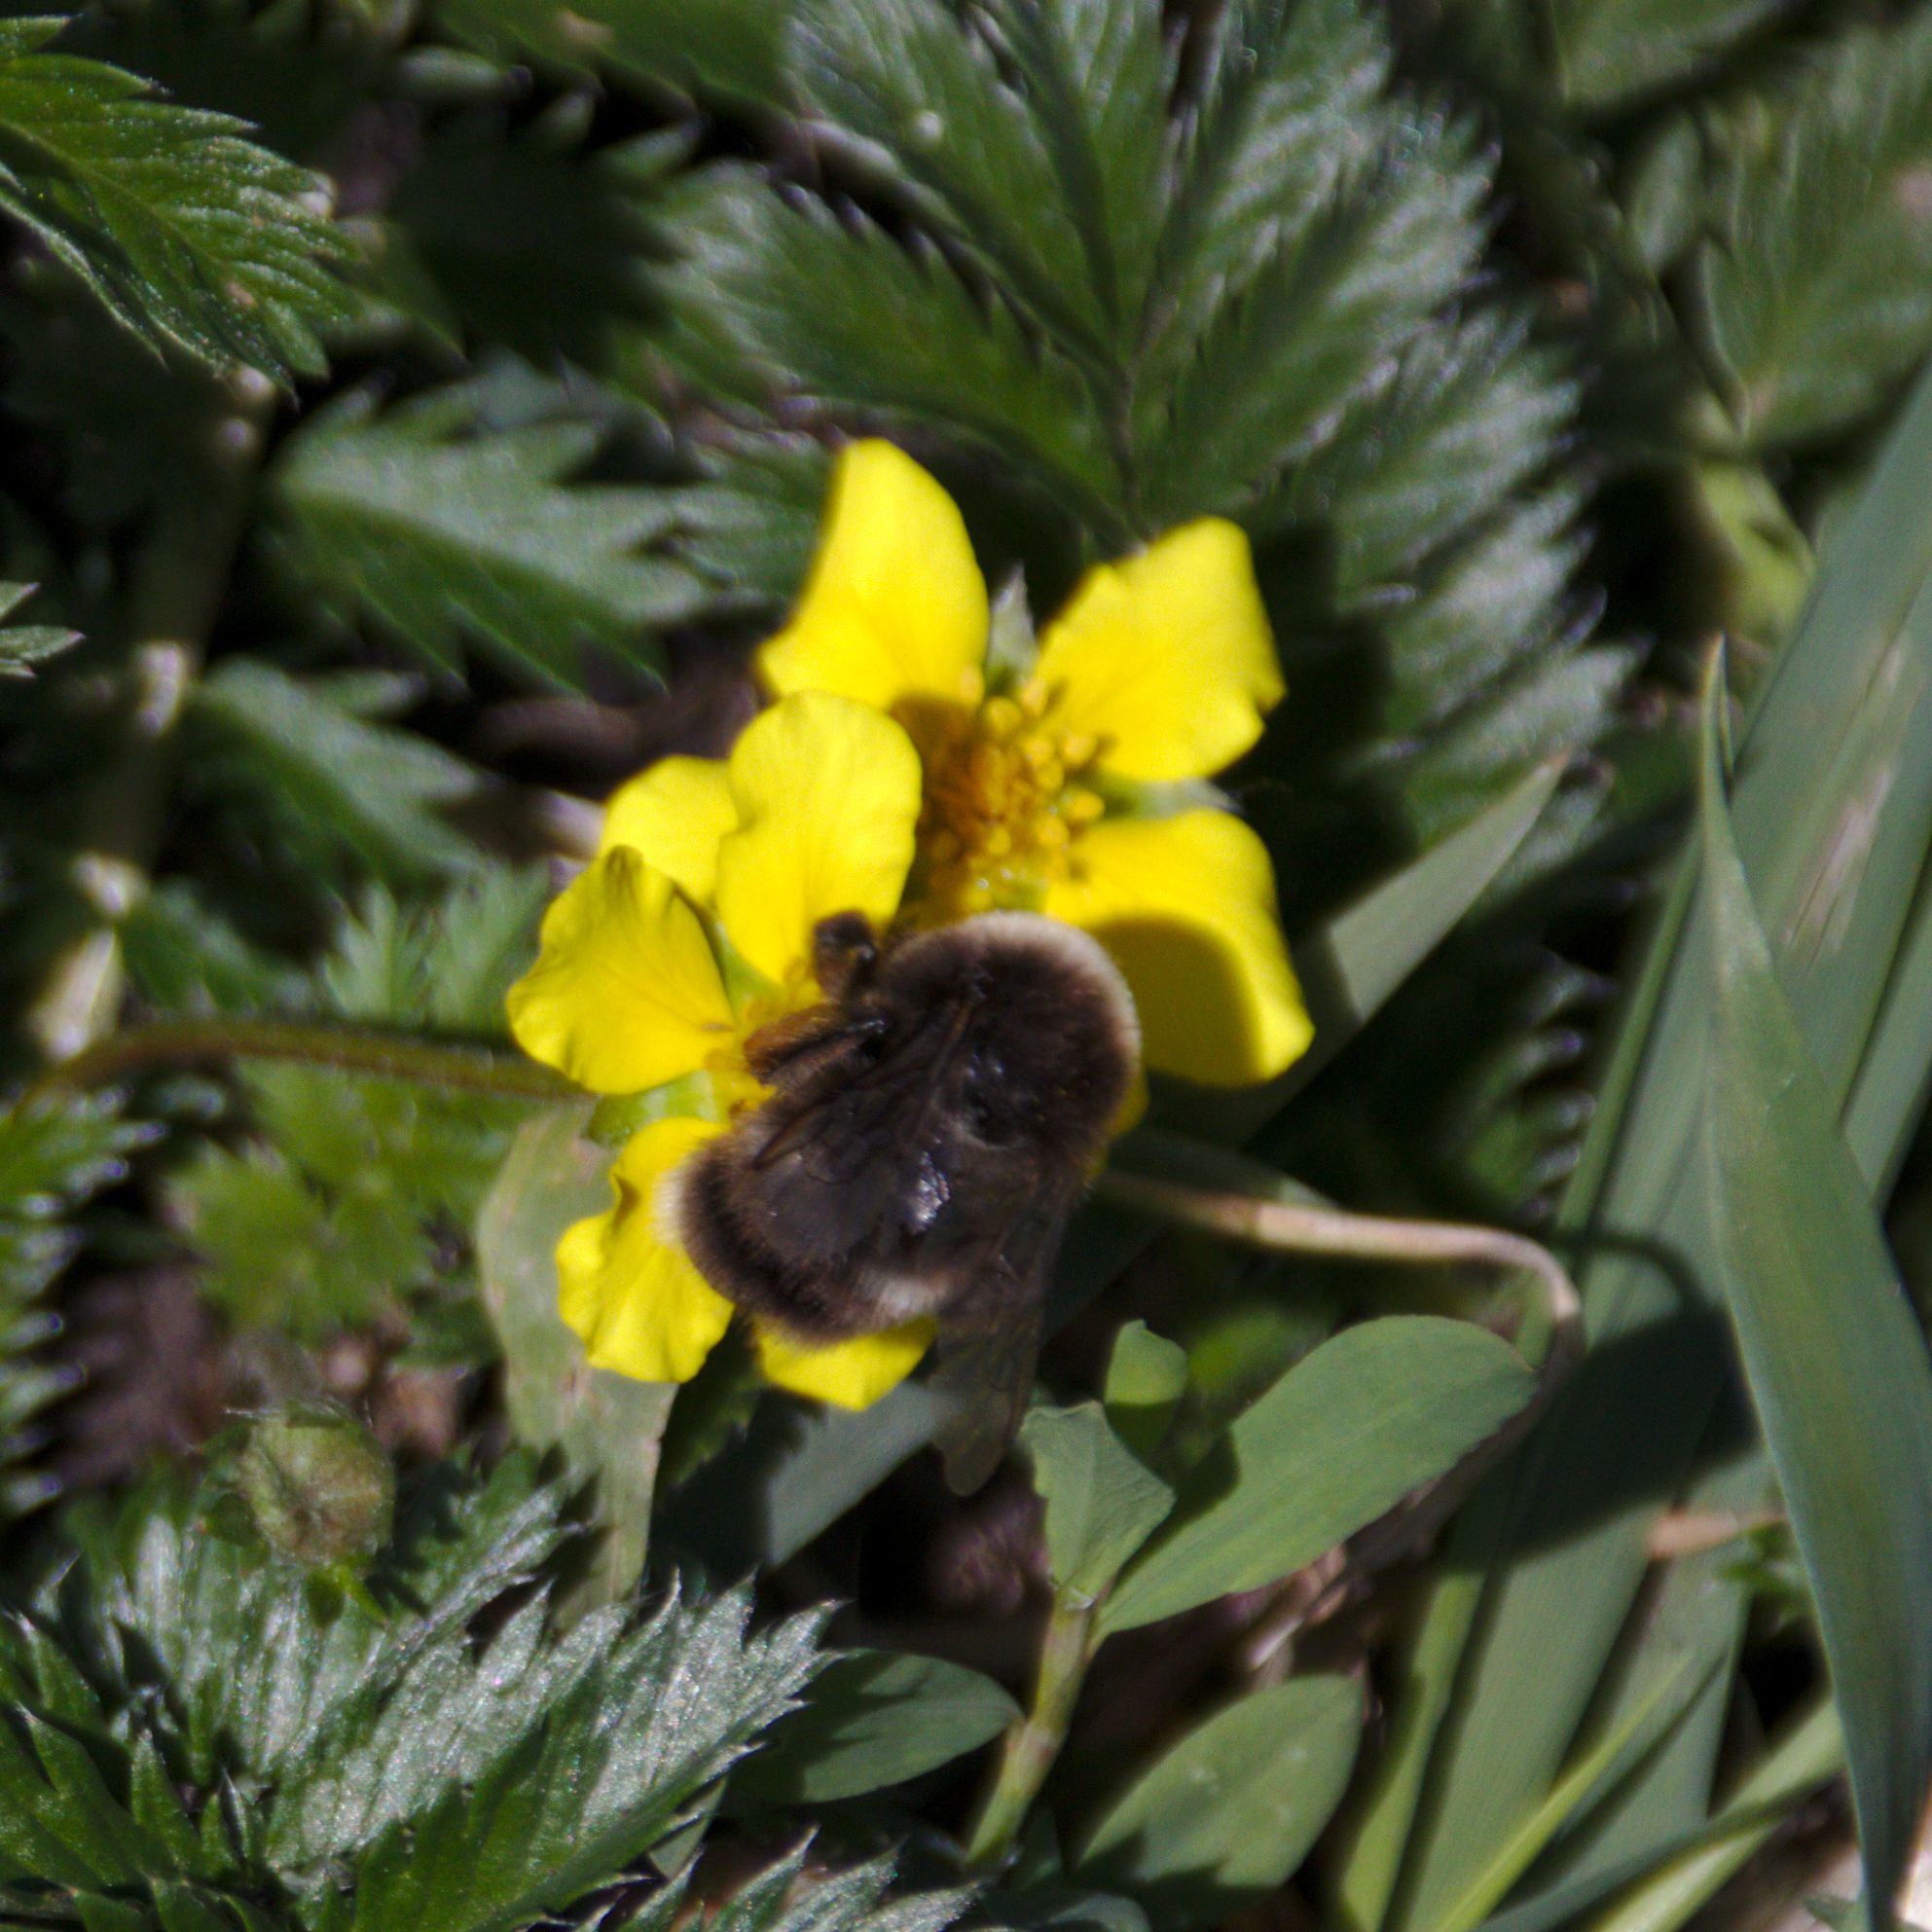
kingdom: Animalia
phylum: Arthropoda
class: Insecta
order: Hymenoptera
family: Apidae
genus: Bombus
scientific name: Bombus
